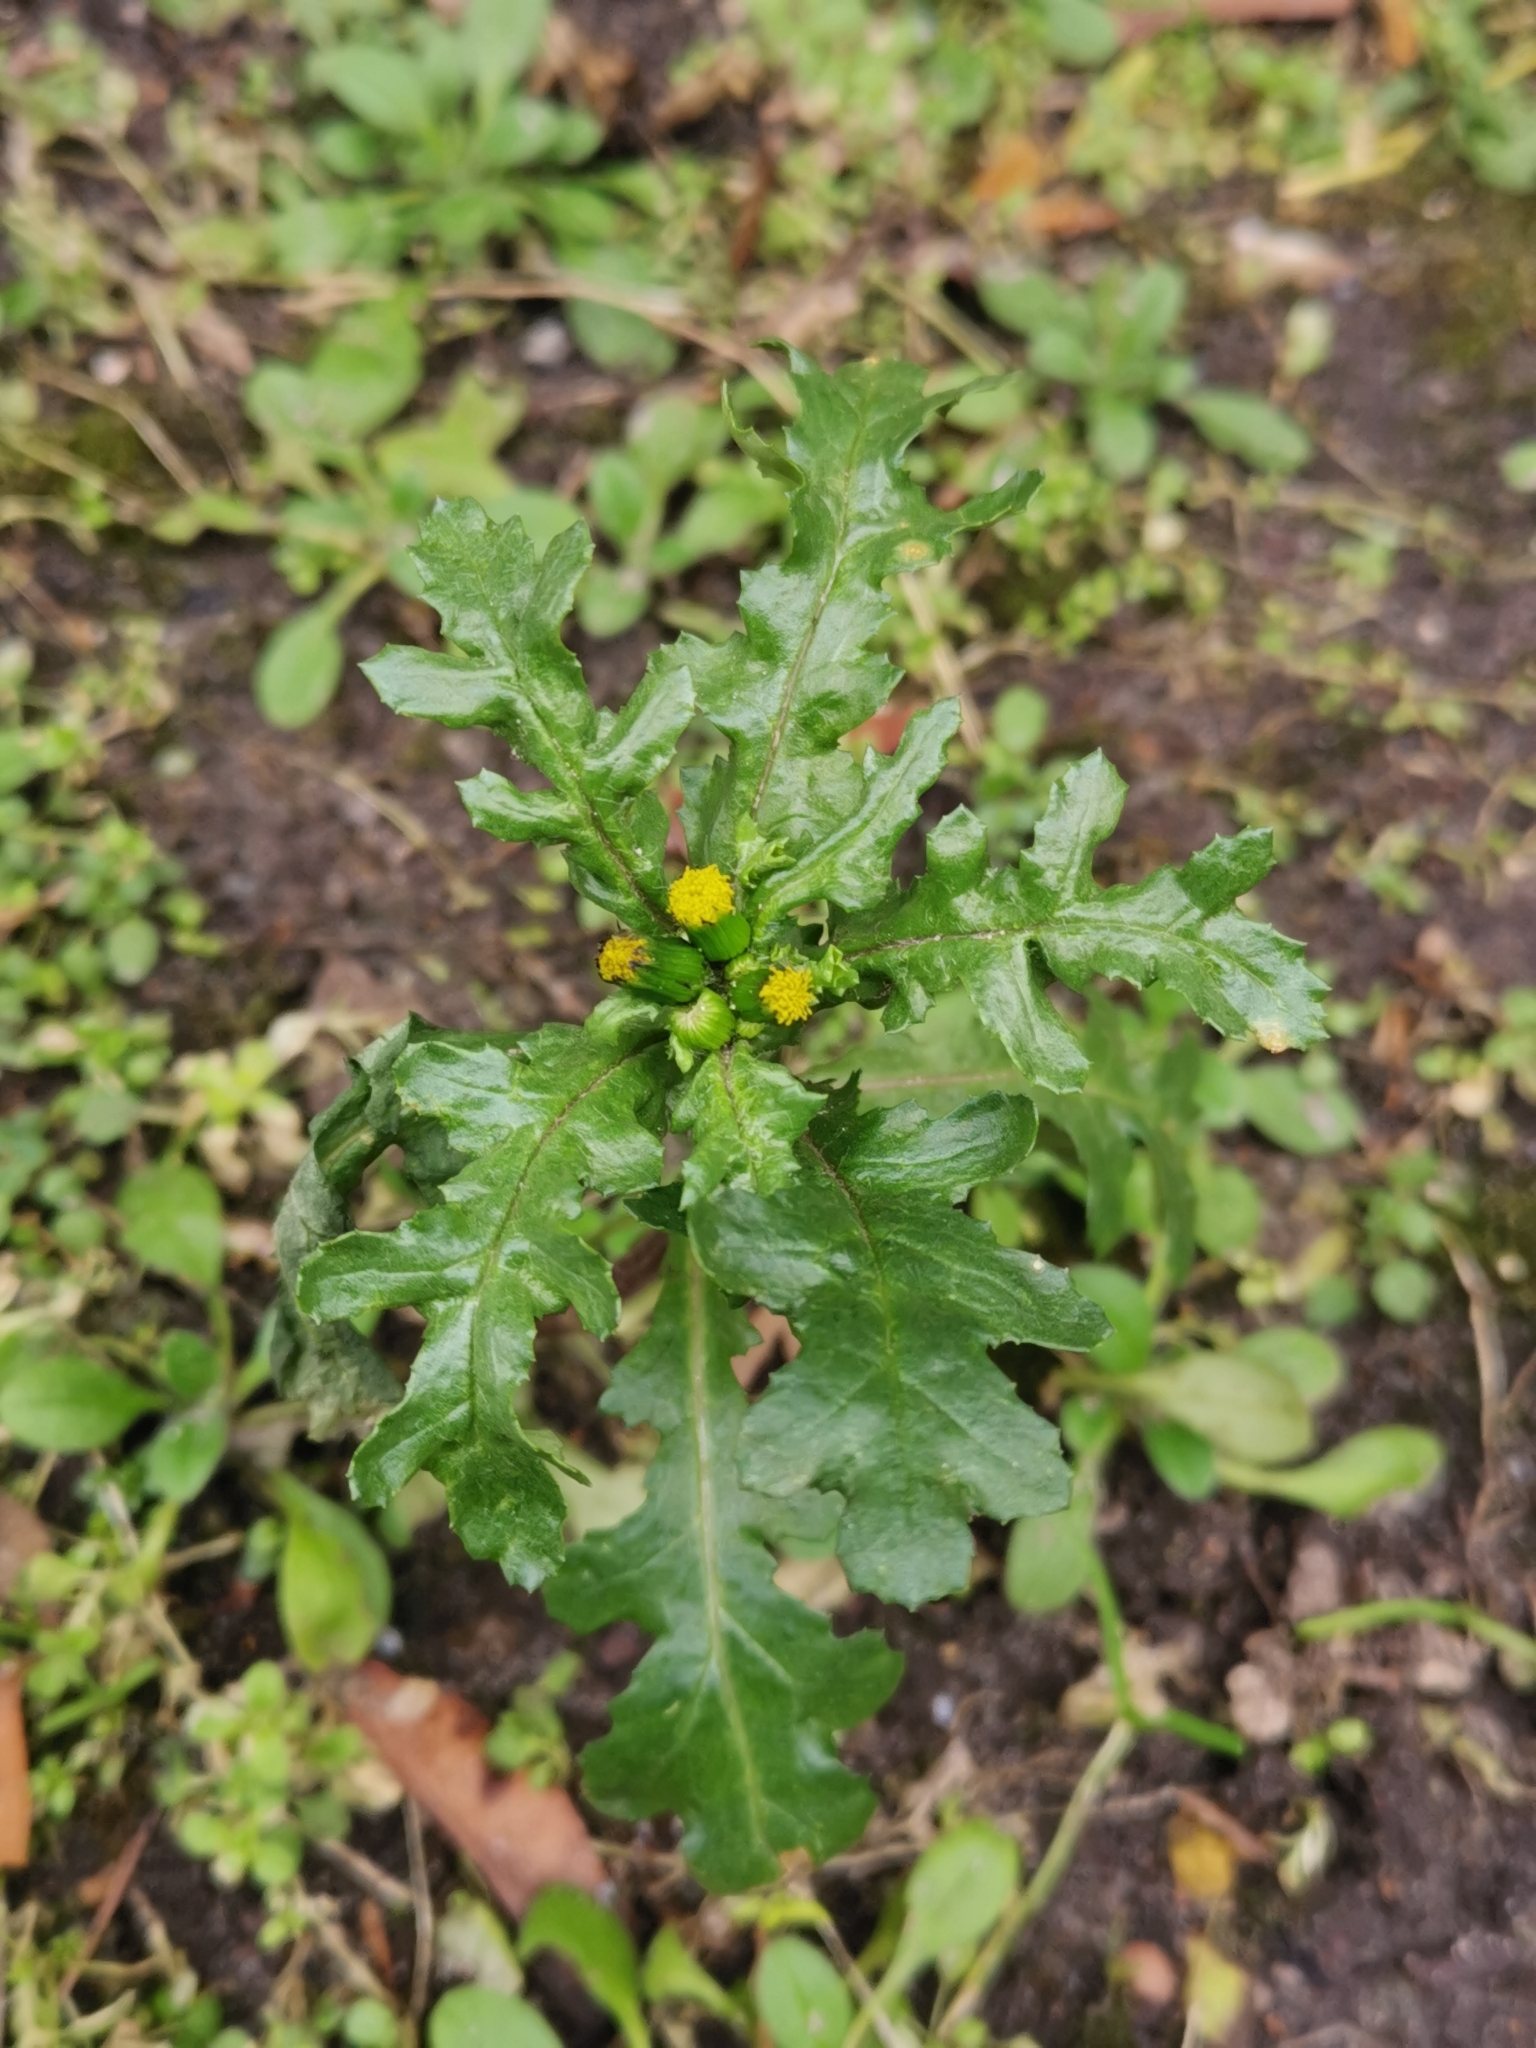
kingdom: Plantae
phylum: Tracheophyta
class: Magnoliopsida
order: Asterales
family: Asteraceae
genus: Senecio
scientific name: Senecio vulgaris
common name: Old-man-in-the-spring
